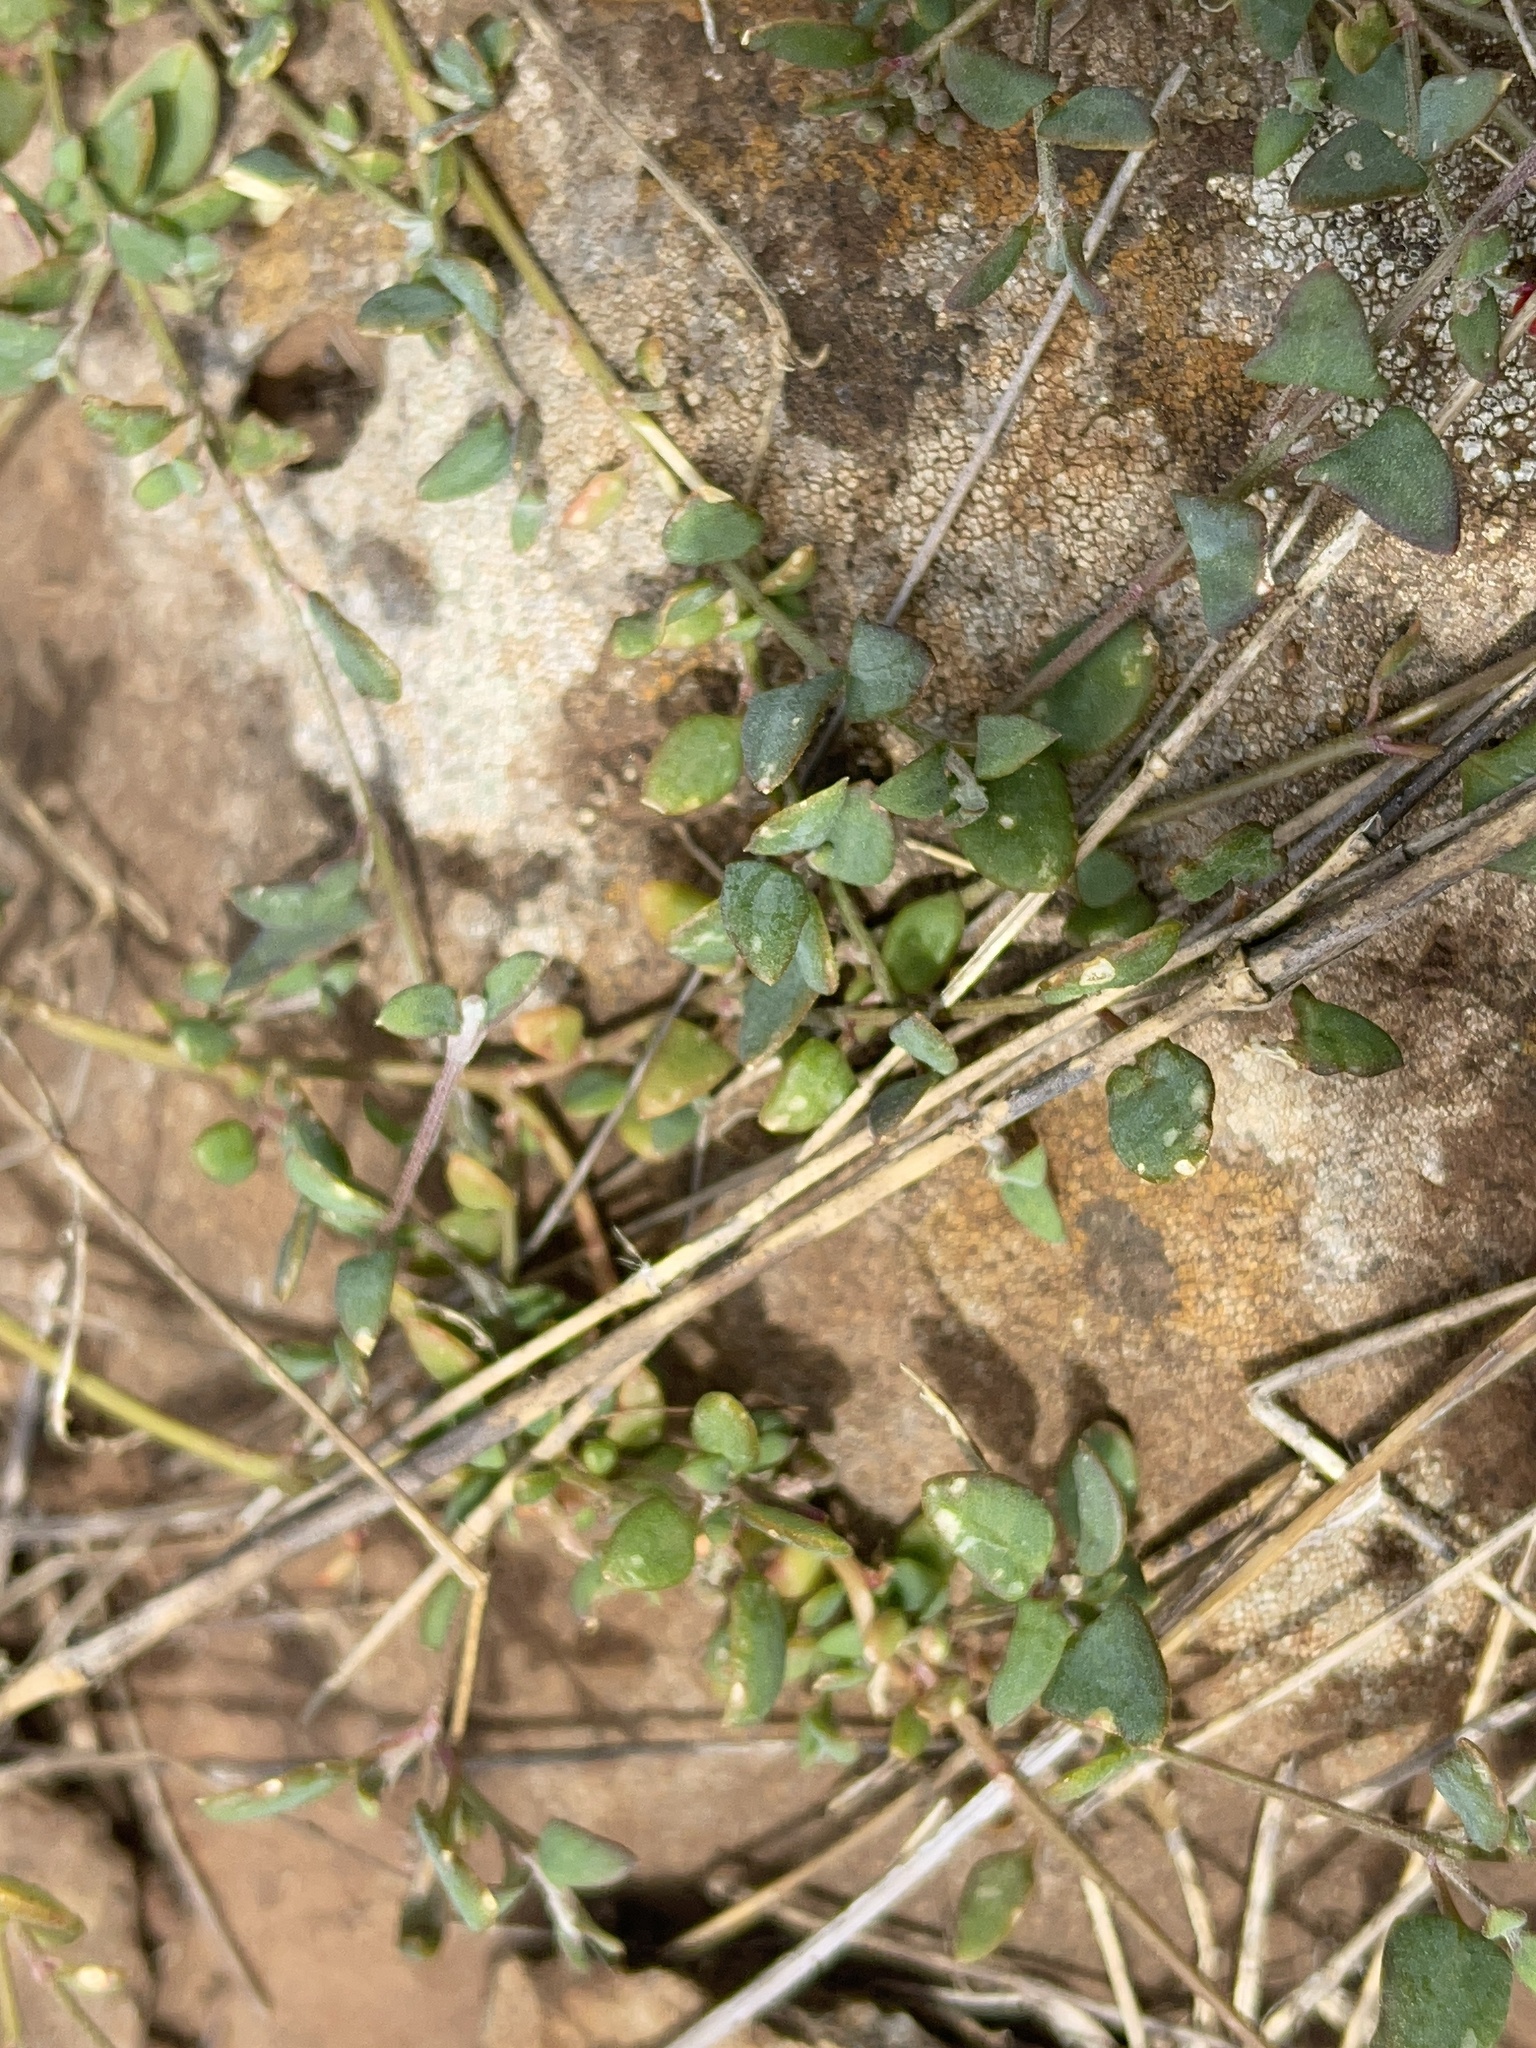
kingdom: Plantae
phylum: Tracheophyta
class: Magnoliopsida
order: Caryophyllales
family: Amaranthaceae
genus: Chenopodium
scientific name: Chenopodium nutans
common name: Climbing-saltbush
